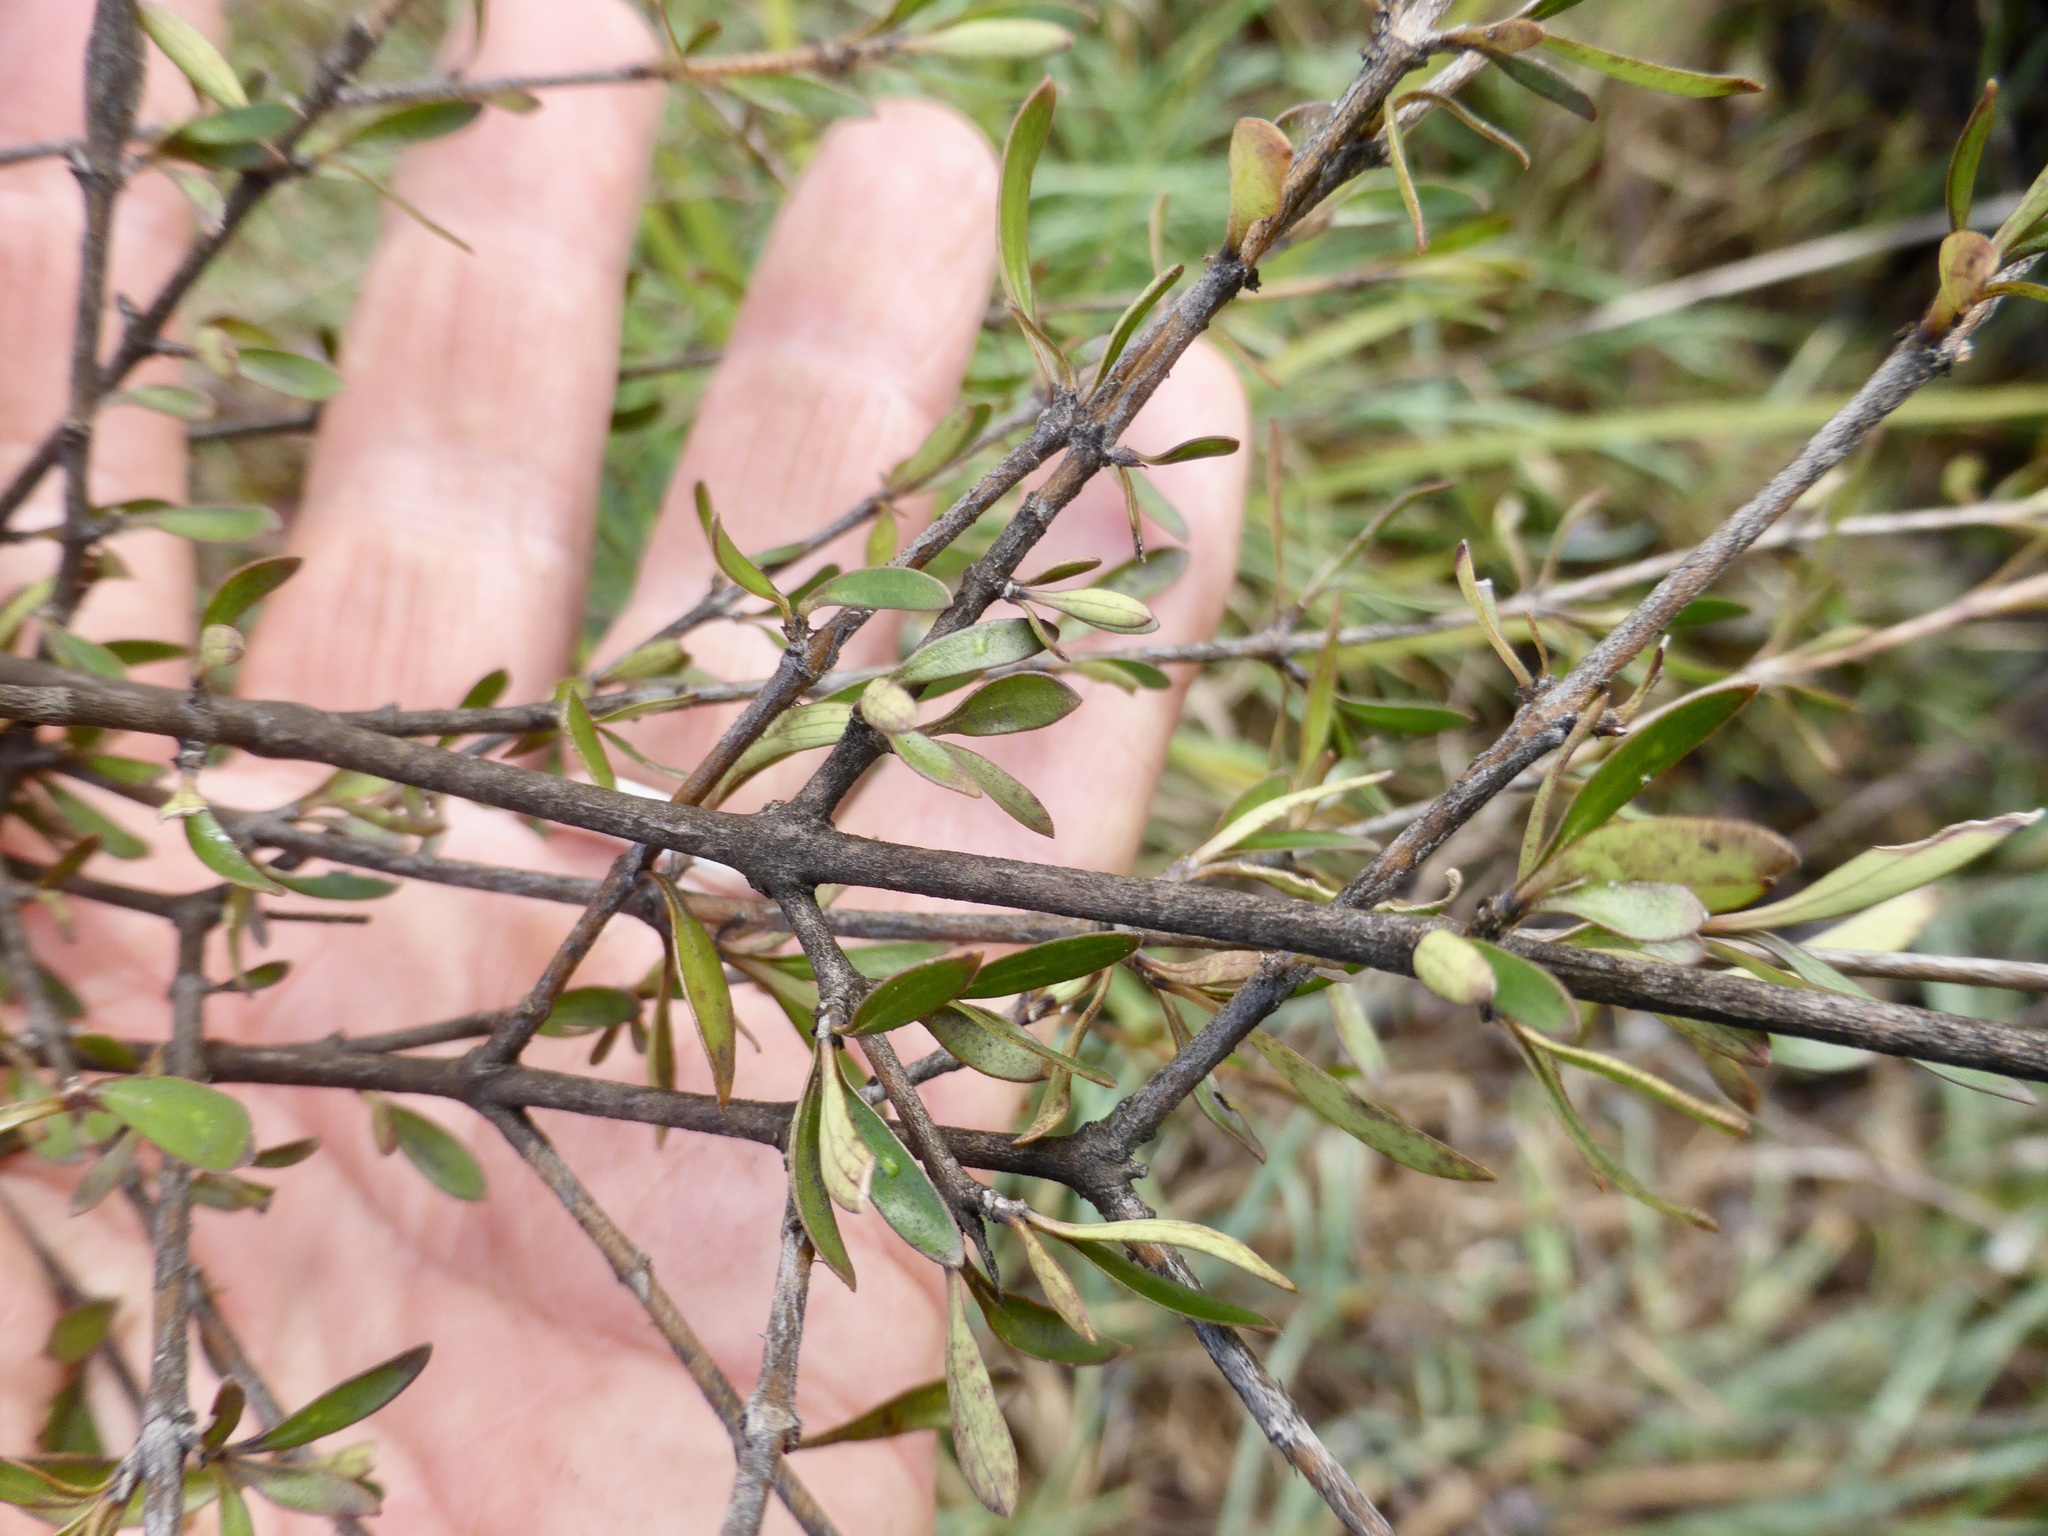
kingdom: Plantae
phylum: Tracheophyta
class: Magnoliopsida
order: Gentianales
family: Rubiaceae
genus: Coprosma
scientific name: Coprosma propinqua
